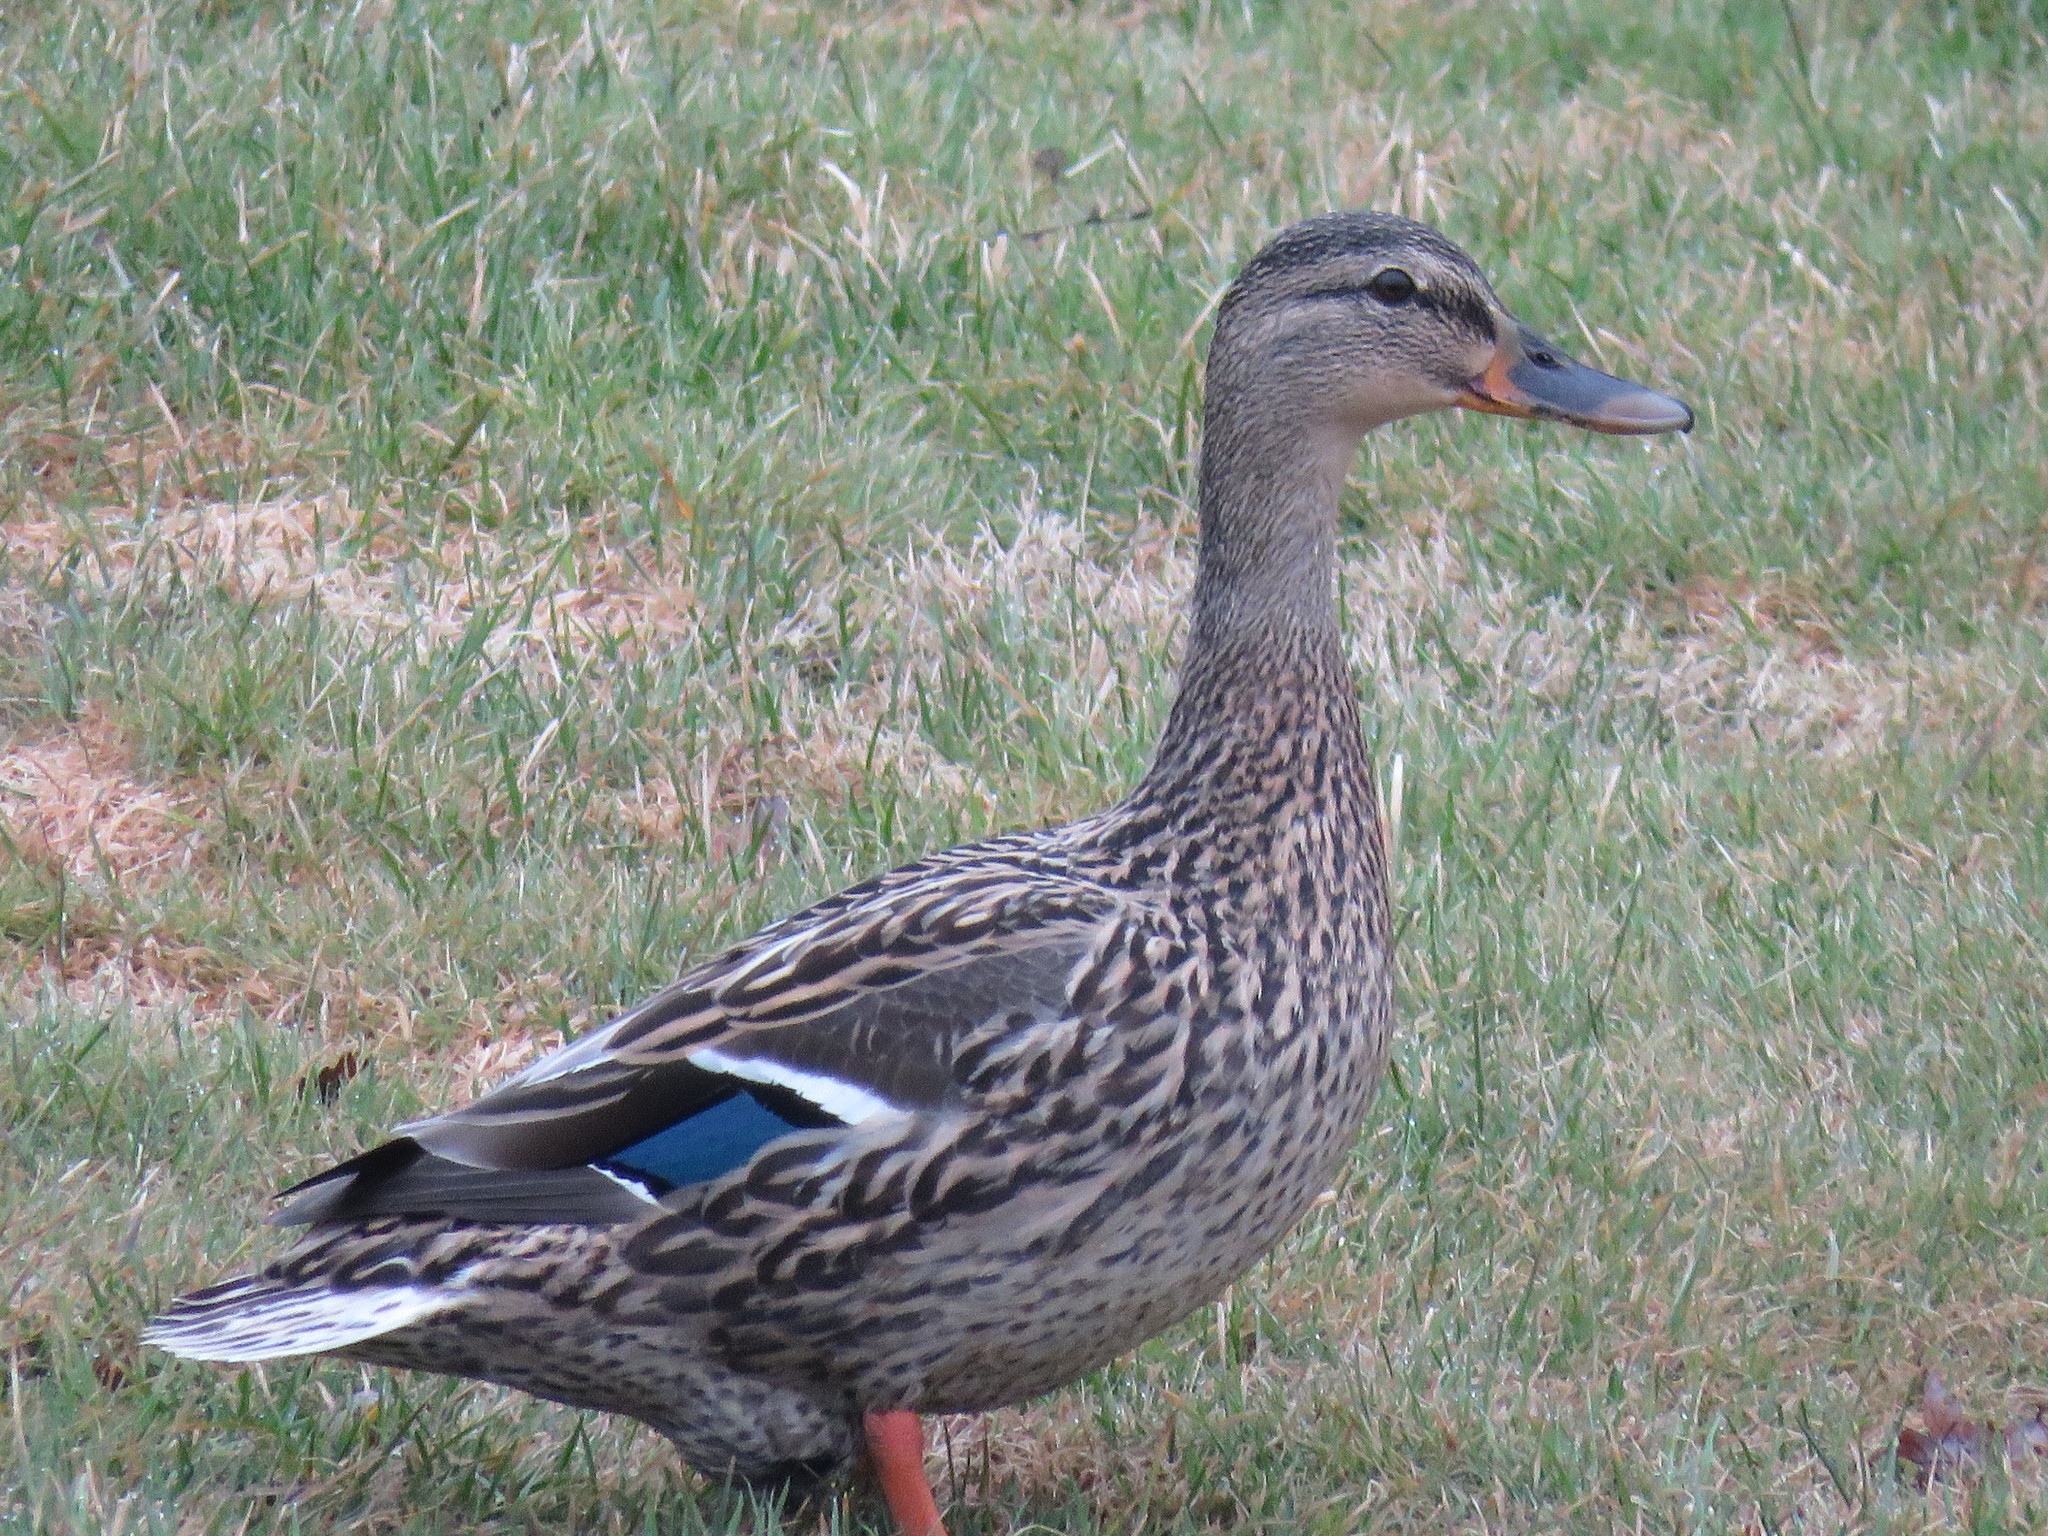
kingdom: Animalia
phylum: Chordata
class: Aves
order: Anseriformes
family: Anatidae
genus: Anas
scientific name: Anas platyrhynchos
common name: Mallard
